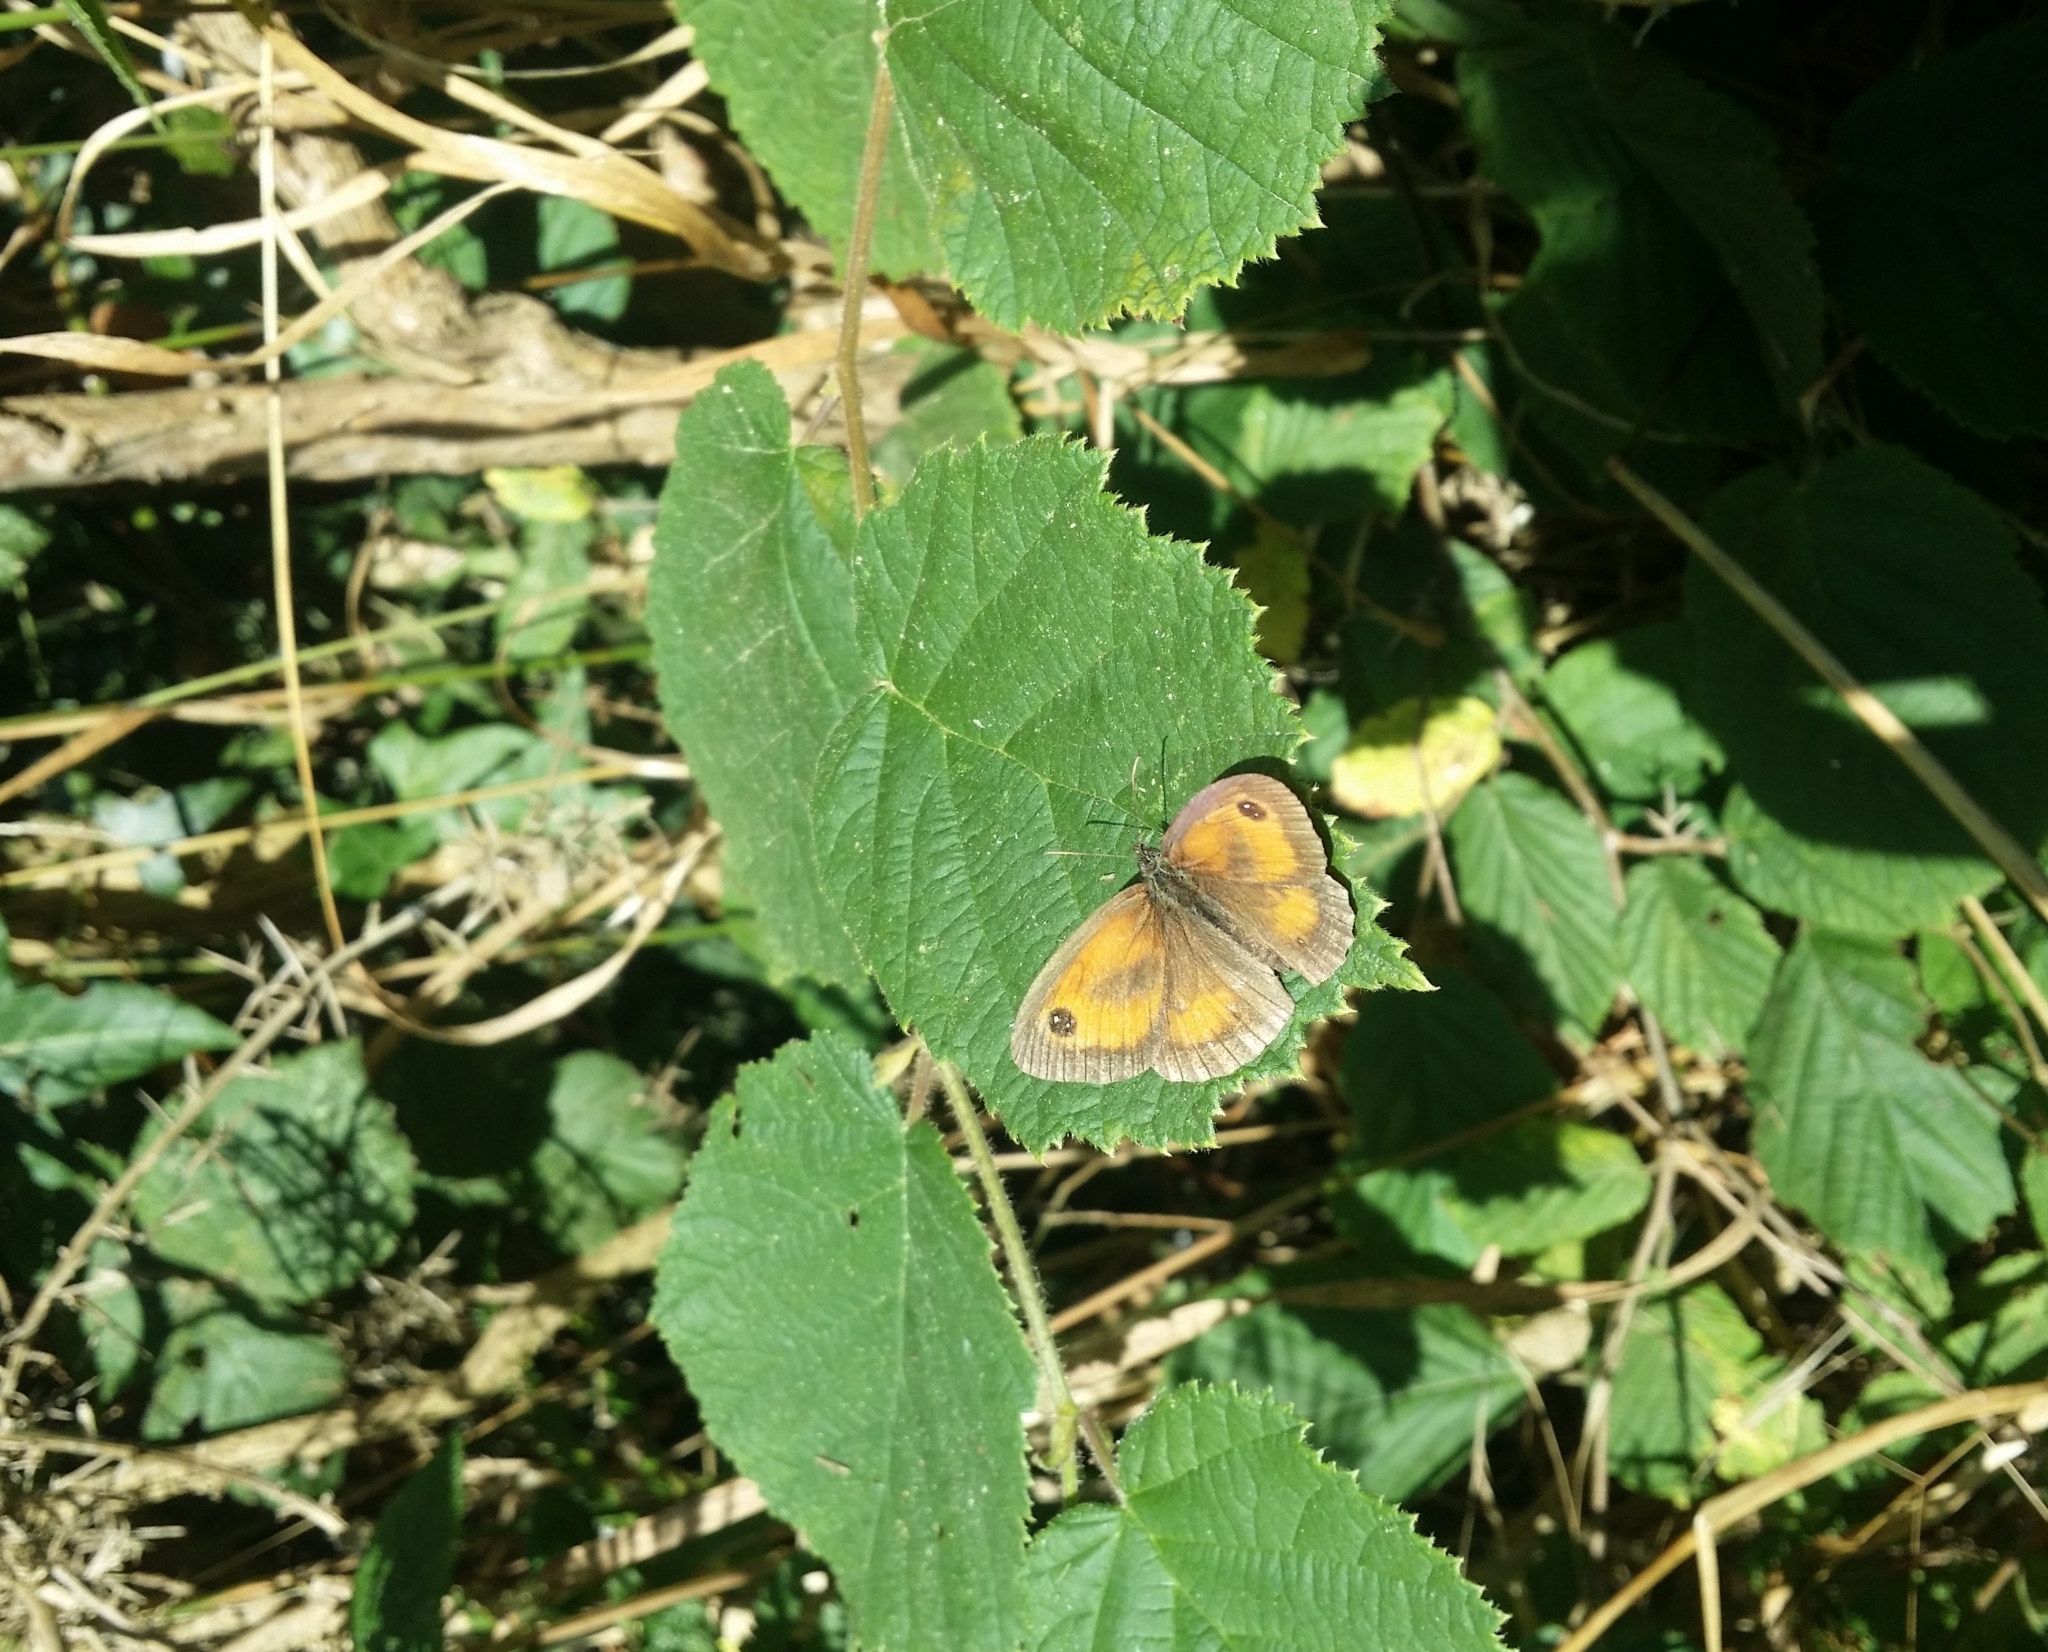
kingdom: Animalia
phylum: Arthropoda
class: Insecta
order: Lepidoptera
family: Nymphalidae
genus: Pyronia
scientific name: Pyronia tithonus
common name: Gatekeeper
